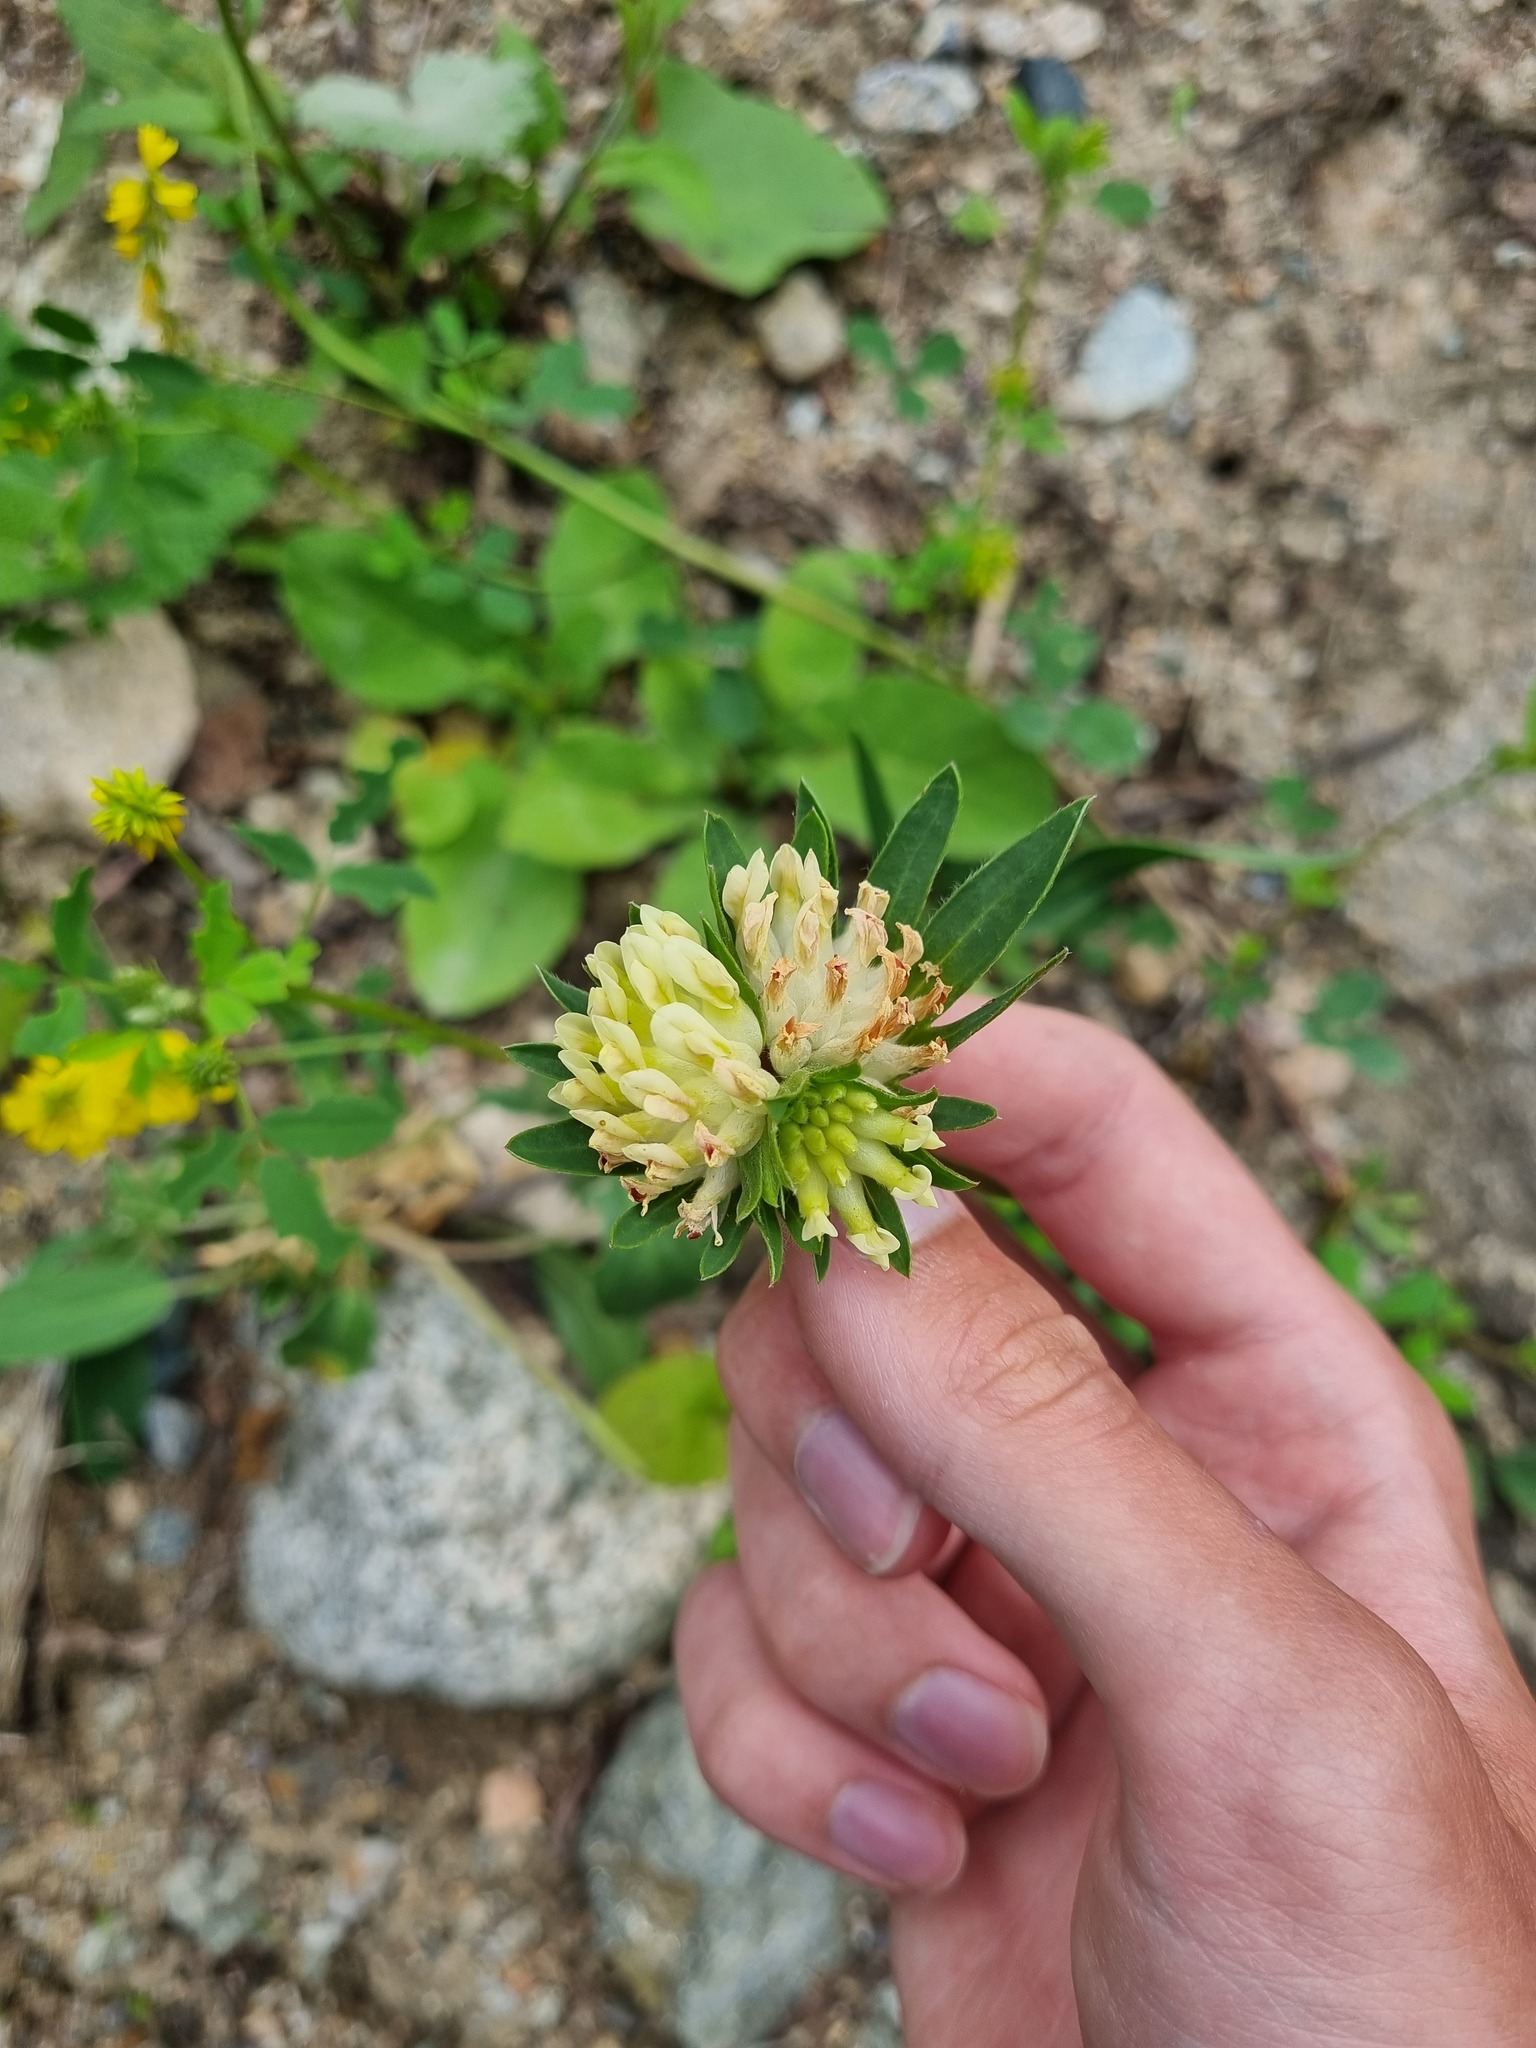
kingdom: Plantae
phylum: Tracheophyta
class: Magnoliopsida
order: Fabales
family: Fabaceae
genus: Anthyllis
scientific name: Anthyllis vulneraria
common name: Kidney vetch
